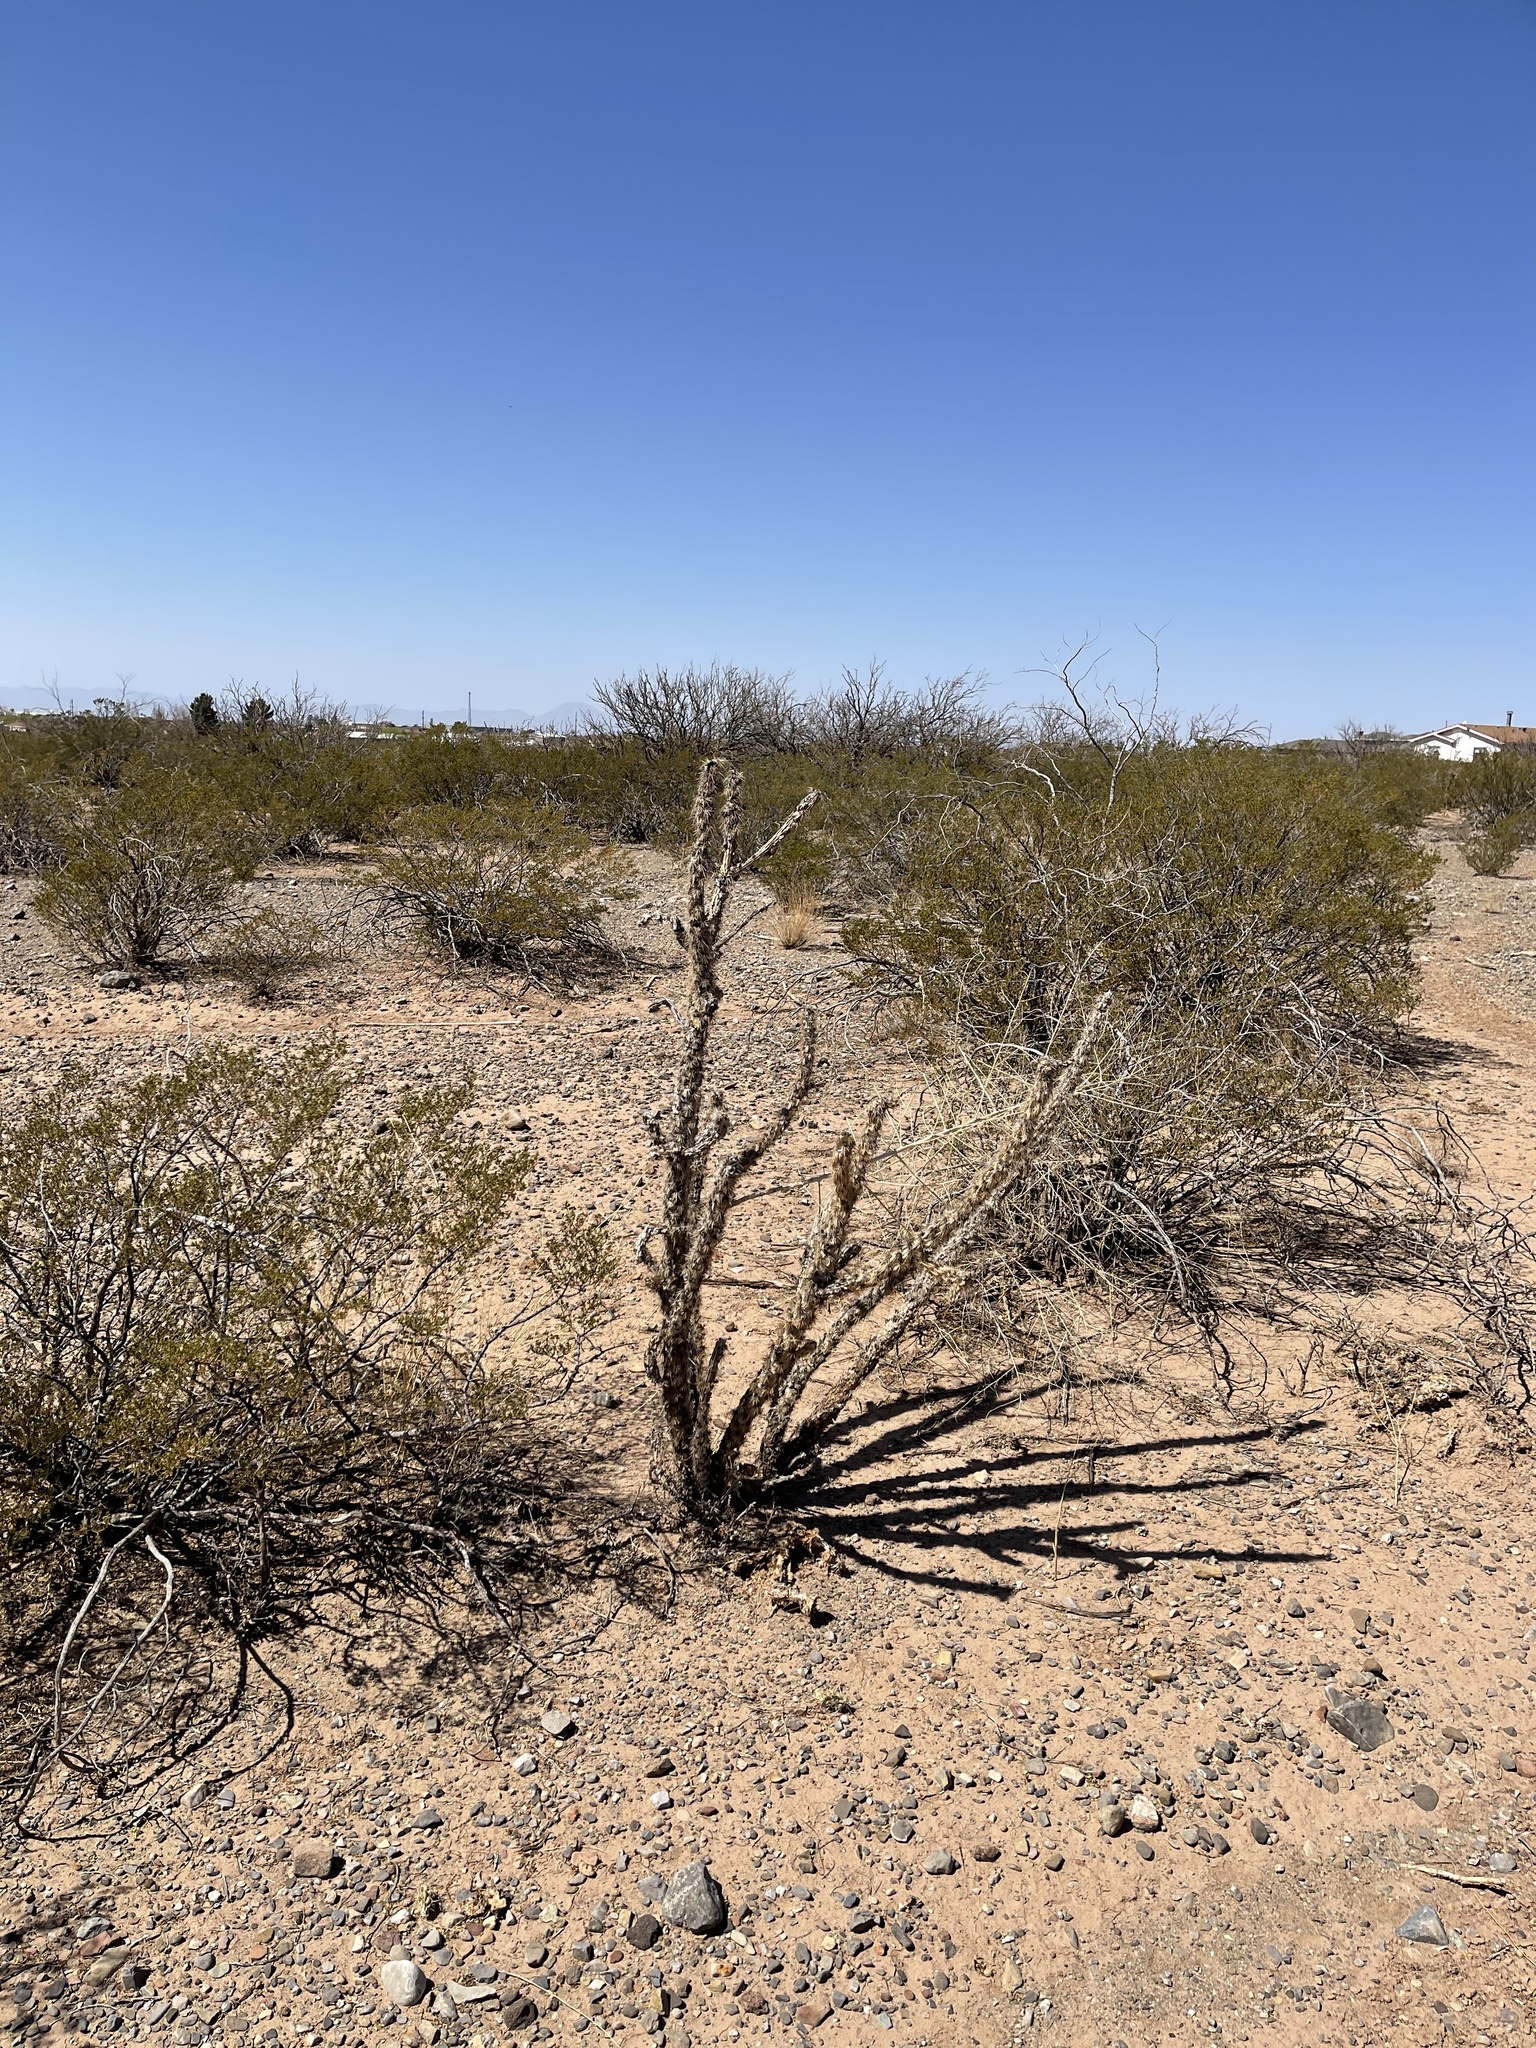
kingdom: Plantae
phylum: Tracheophyta
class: Magnoliopsida
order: Caryophyllales
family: Cactaceae
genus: Cylindropuntia
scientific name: Cylindropuntia imbricata
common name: Candelabrum cactus
